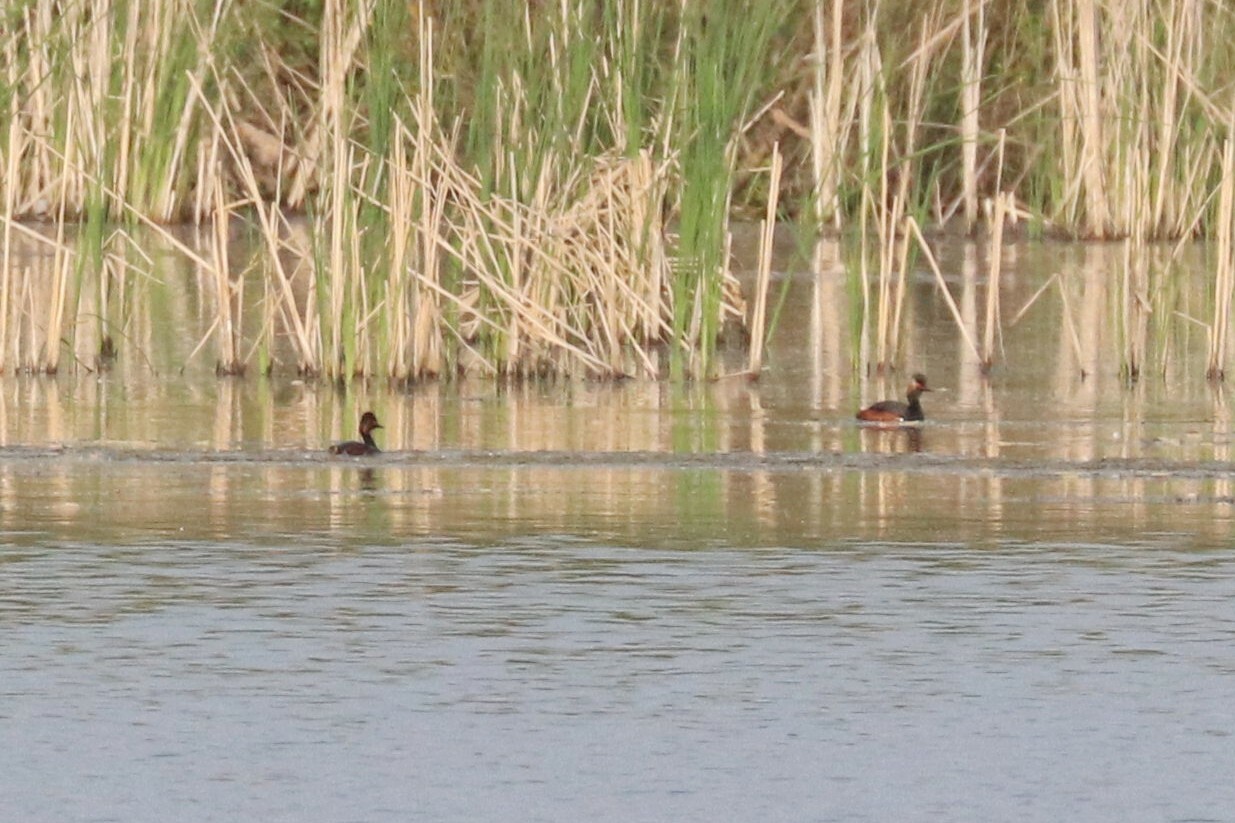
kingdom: Animalia
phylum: Chordata
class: Aves
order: Podicipediformes
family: Podicipedidae
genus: Podiceps
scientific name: Podiceps nigricollis
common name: Black-necked grebe
